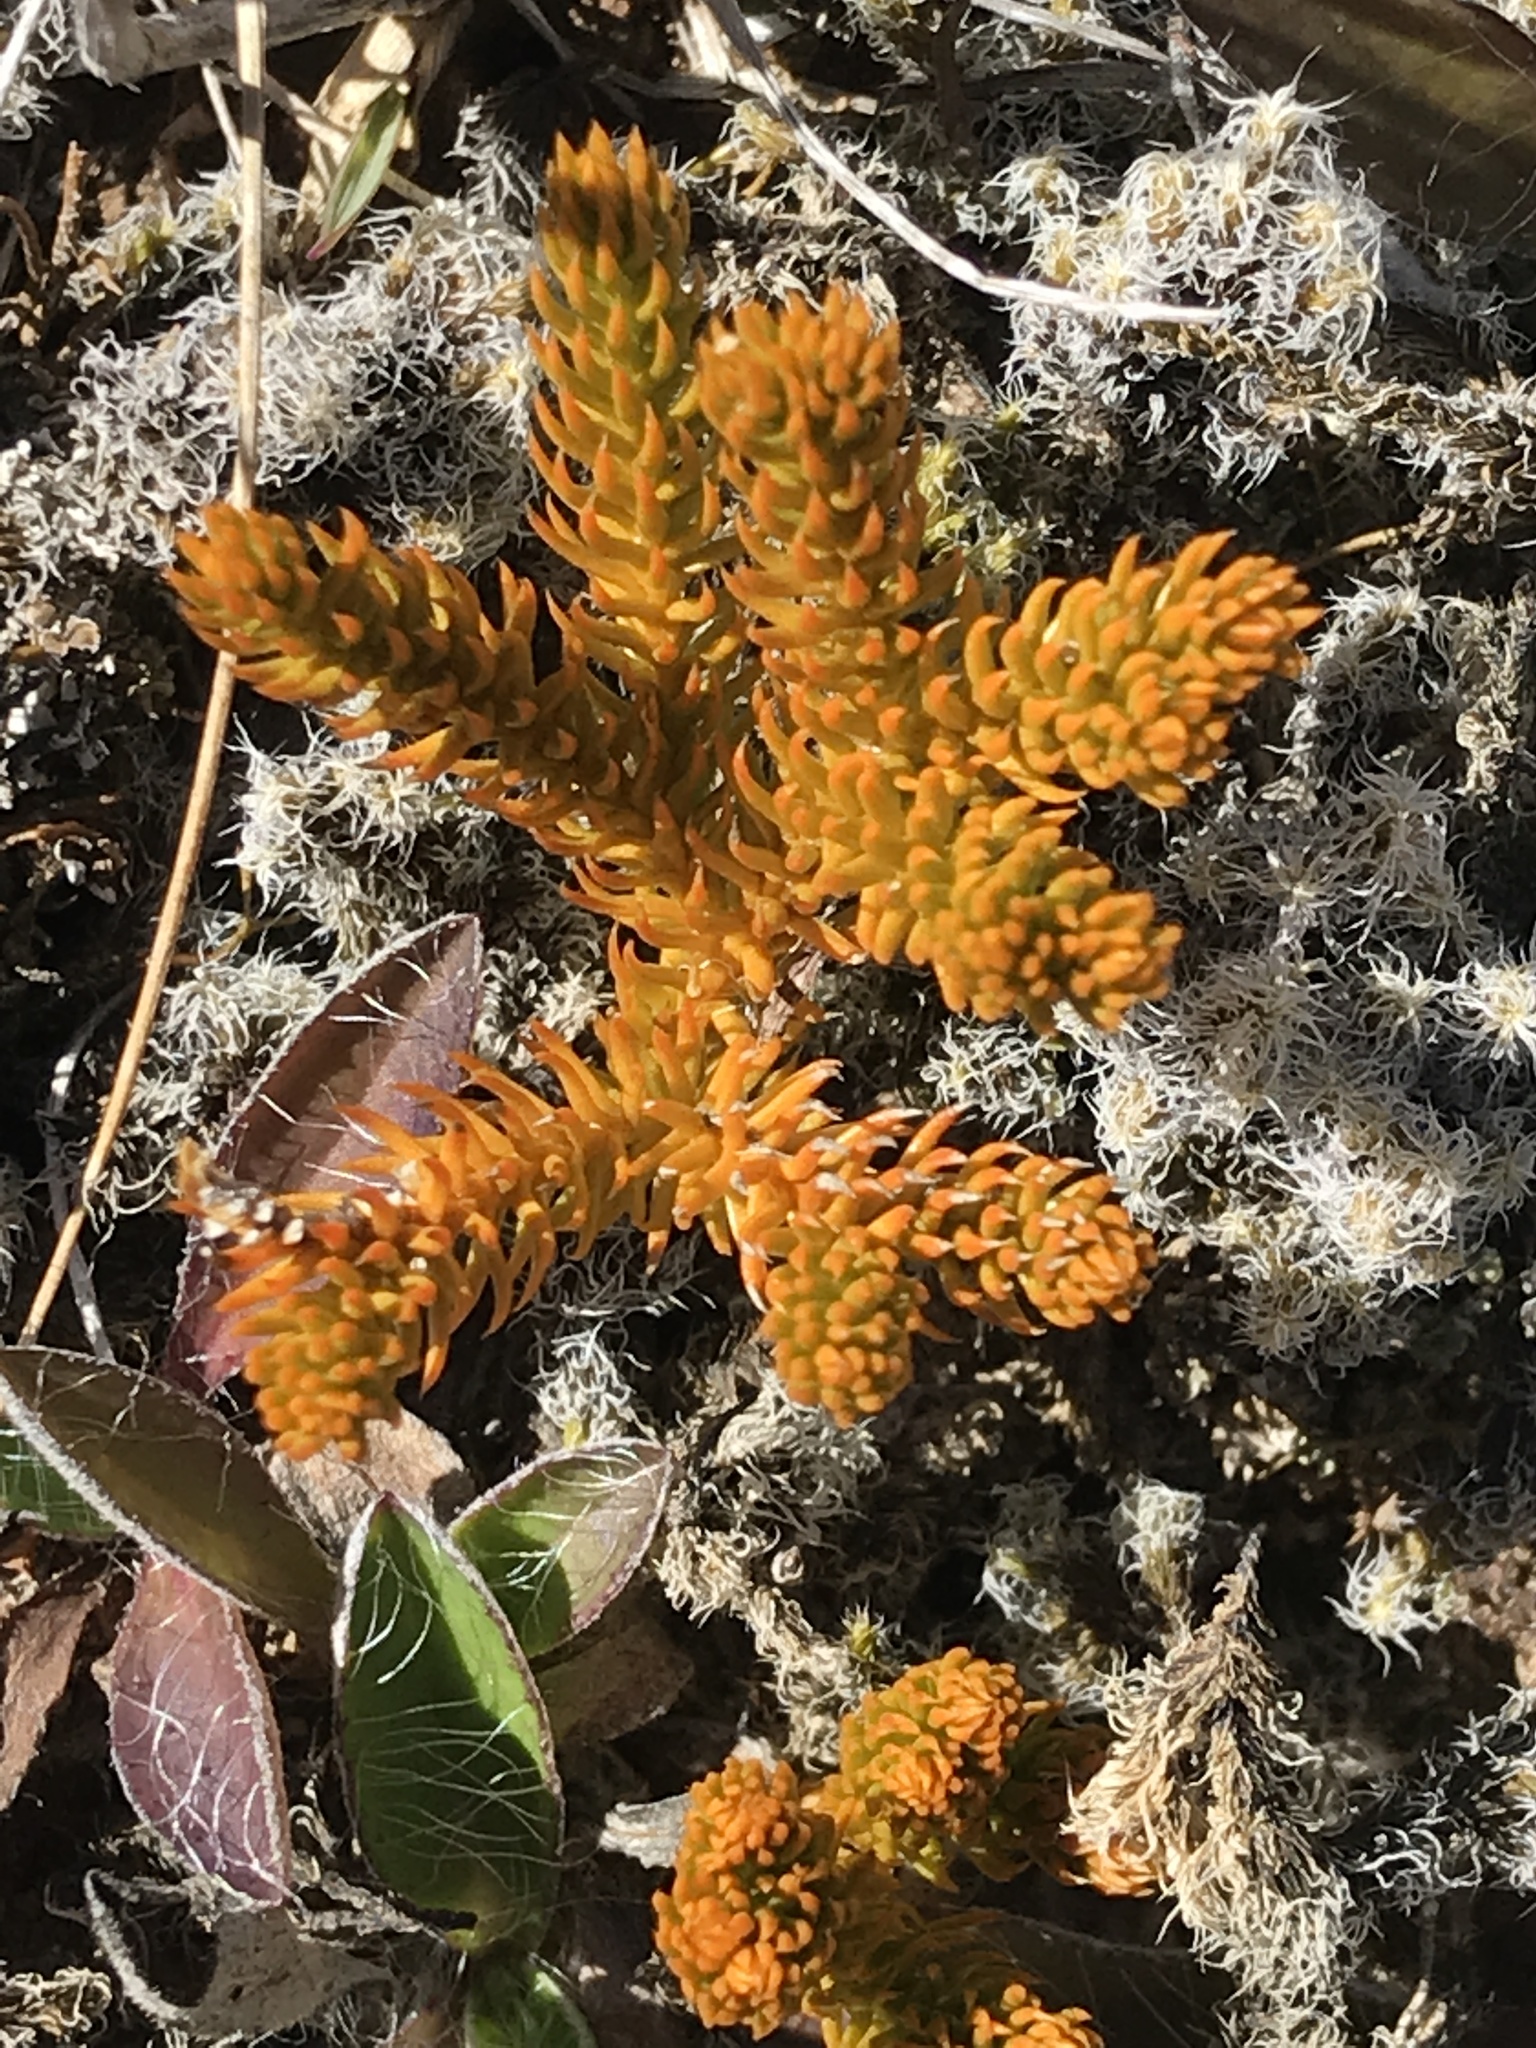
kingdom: Plantae
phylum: Tracheophyta
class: Lycopodiopsida
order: Lycopodiales
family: Lycopodiaceae
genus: Austrolycopodium
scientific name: Austrolycopodium fastigiatum
